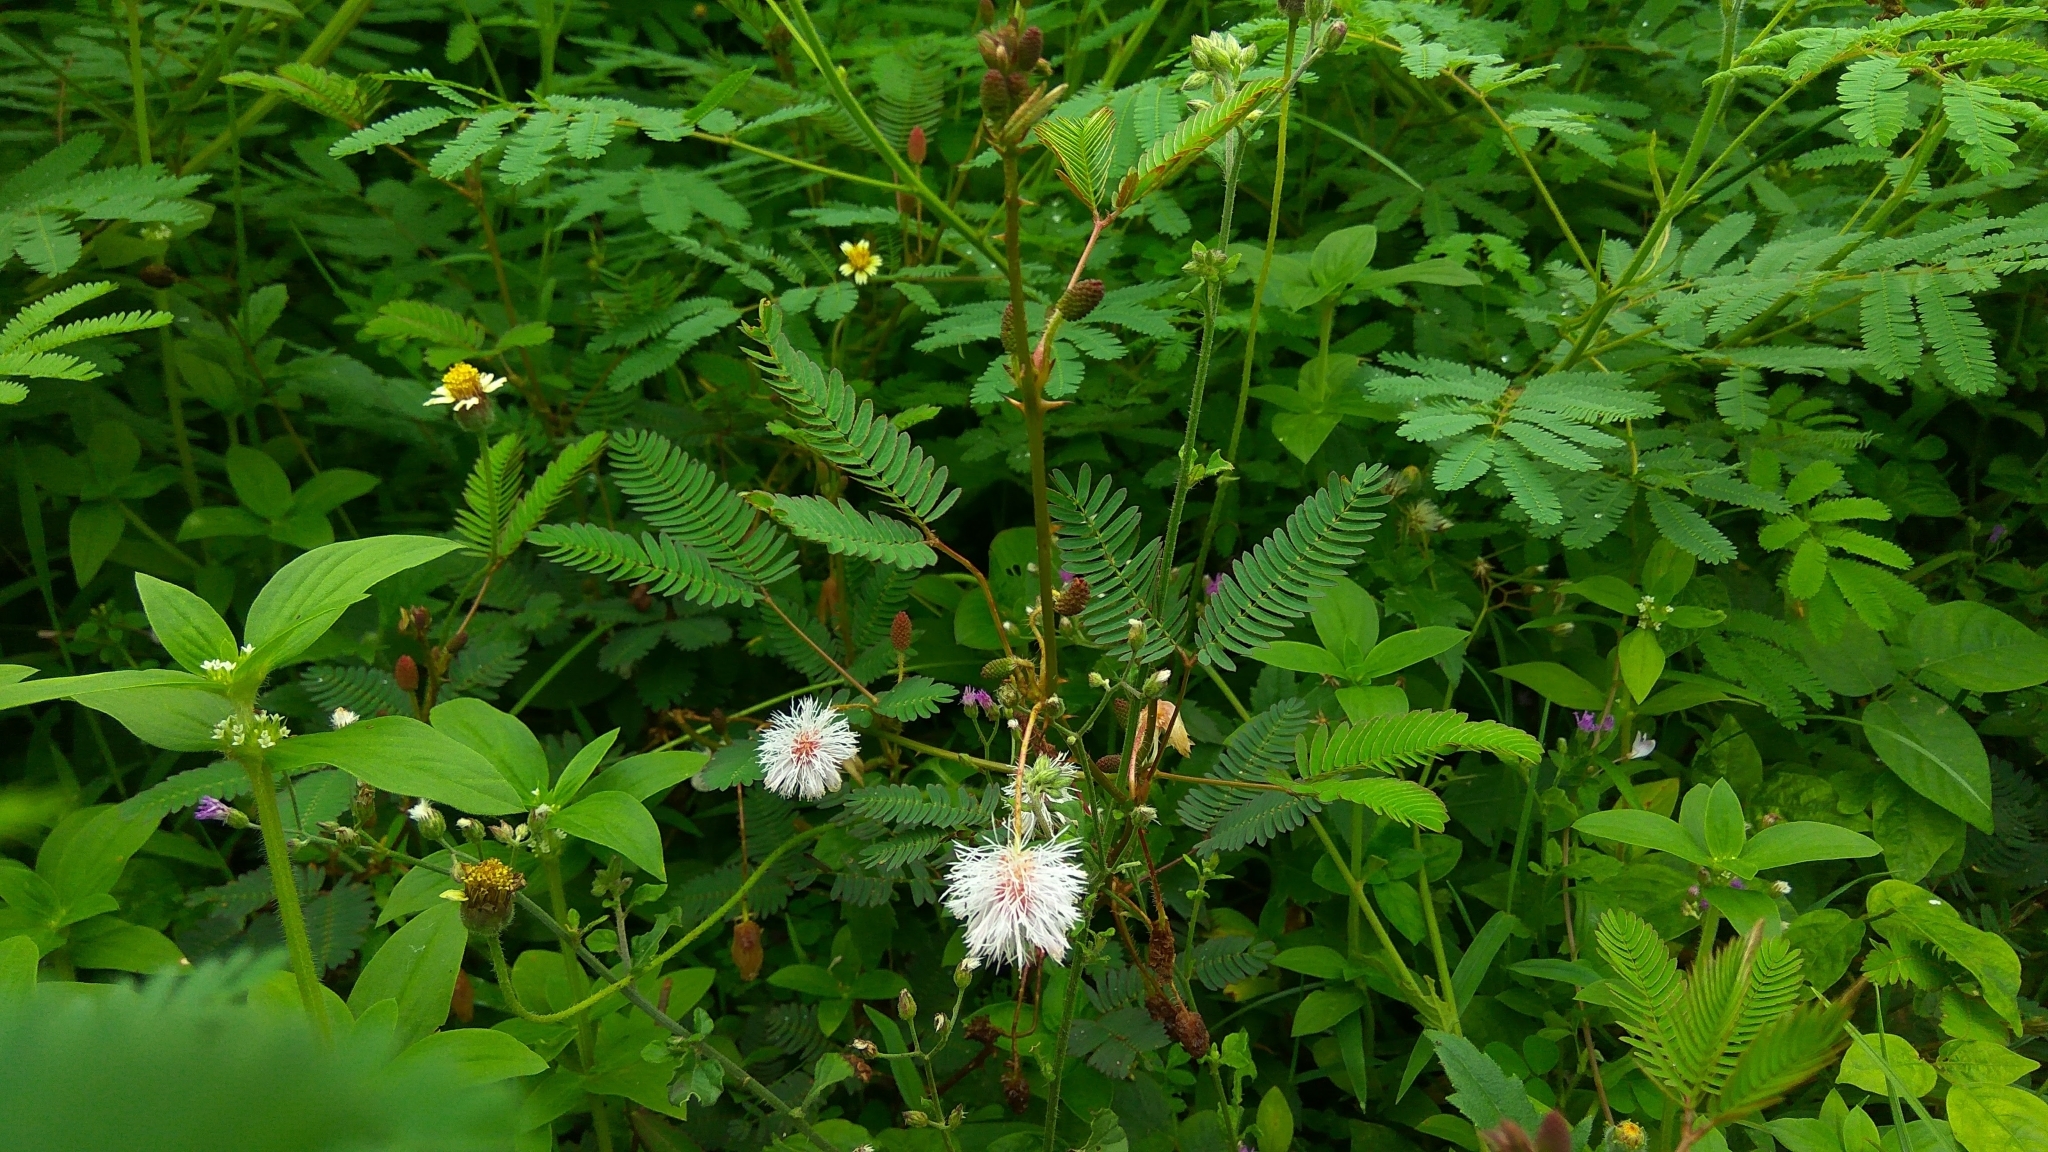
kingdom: Plantae
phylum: Tracheophyta
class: Magnoliopsida
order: Fabales
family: Fabaceae
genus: Mimosa
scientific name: Mimosa pudica
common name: Sensitive plant
